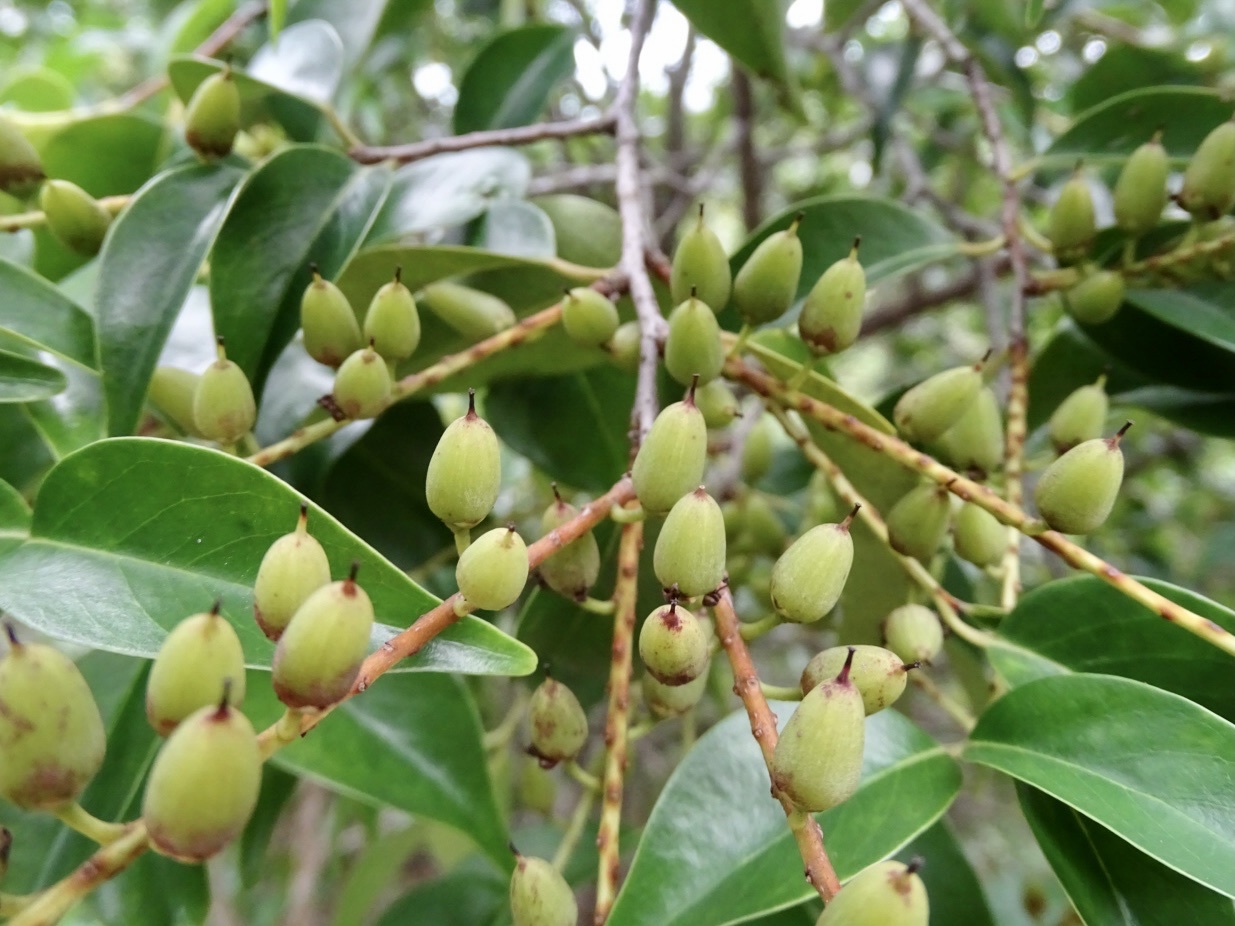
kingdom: Plantae
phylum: Tracheophyta
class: Magnoliopsida
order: Ericales
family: Pentaphylacaceae
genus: Pentaphylax
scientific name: Pentaphylax euryoides
